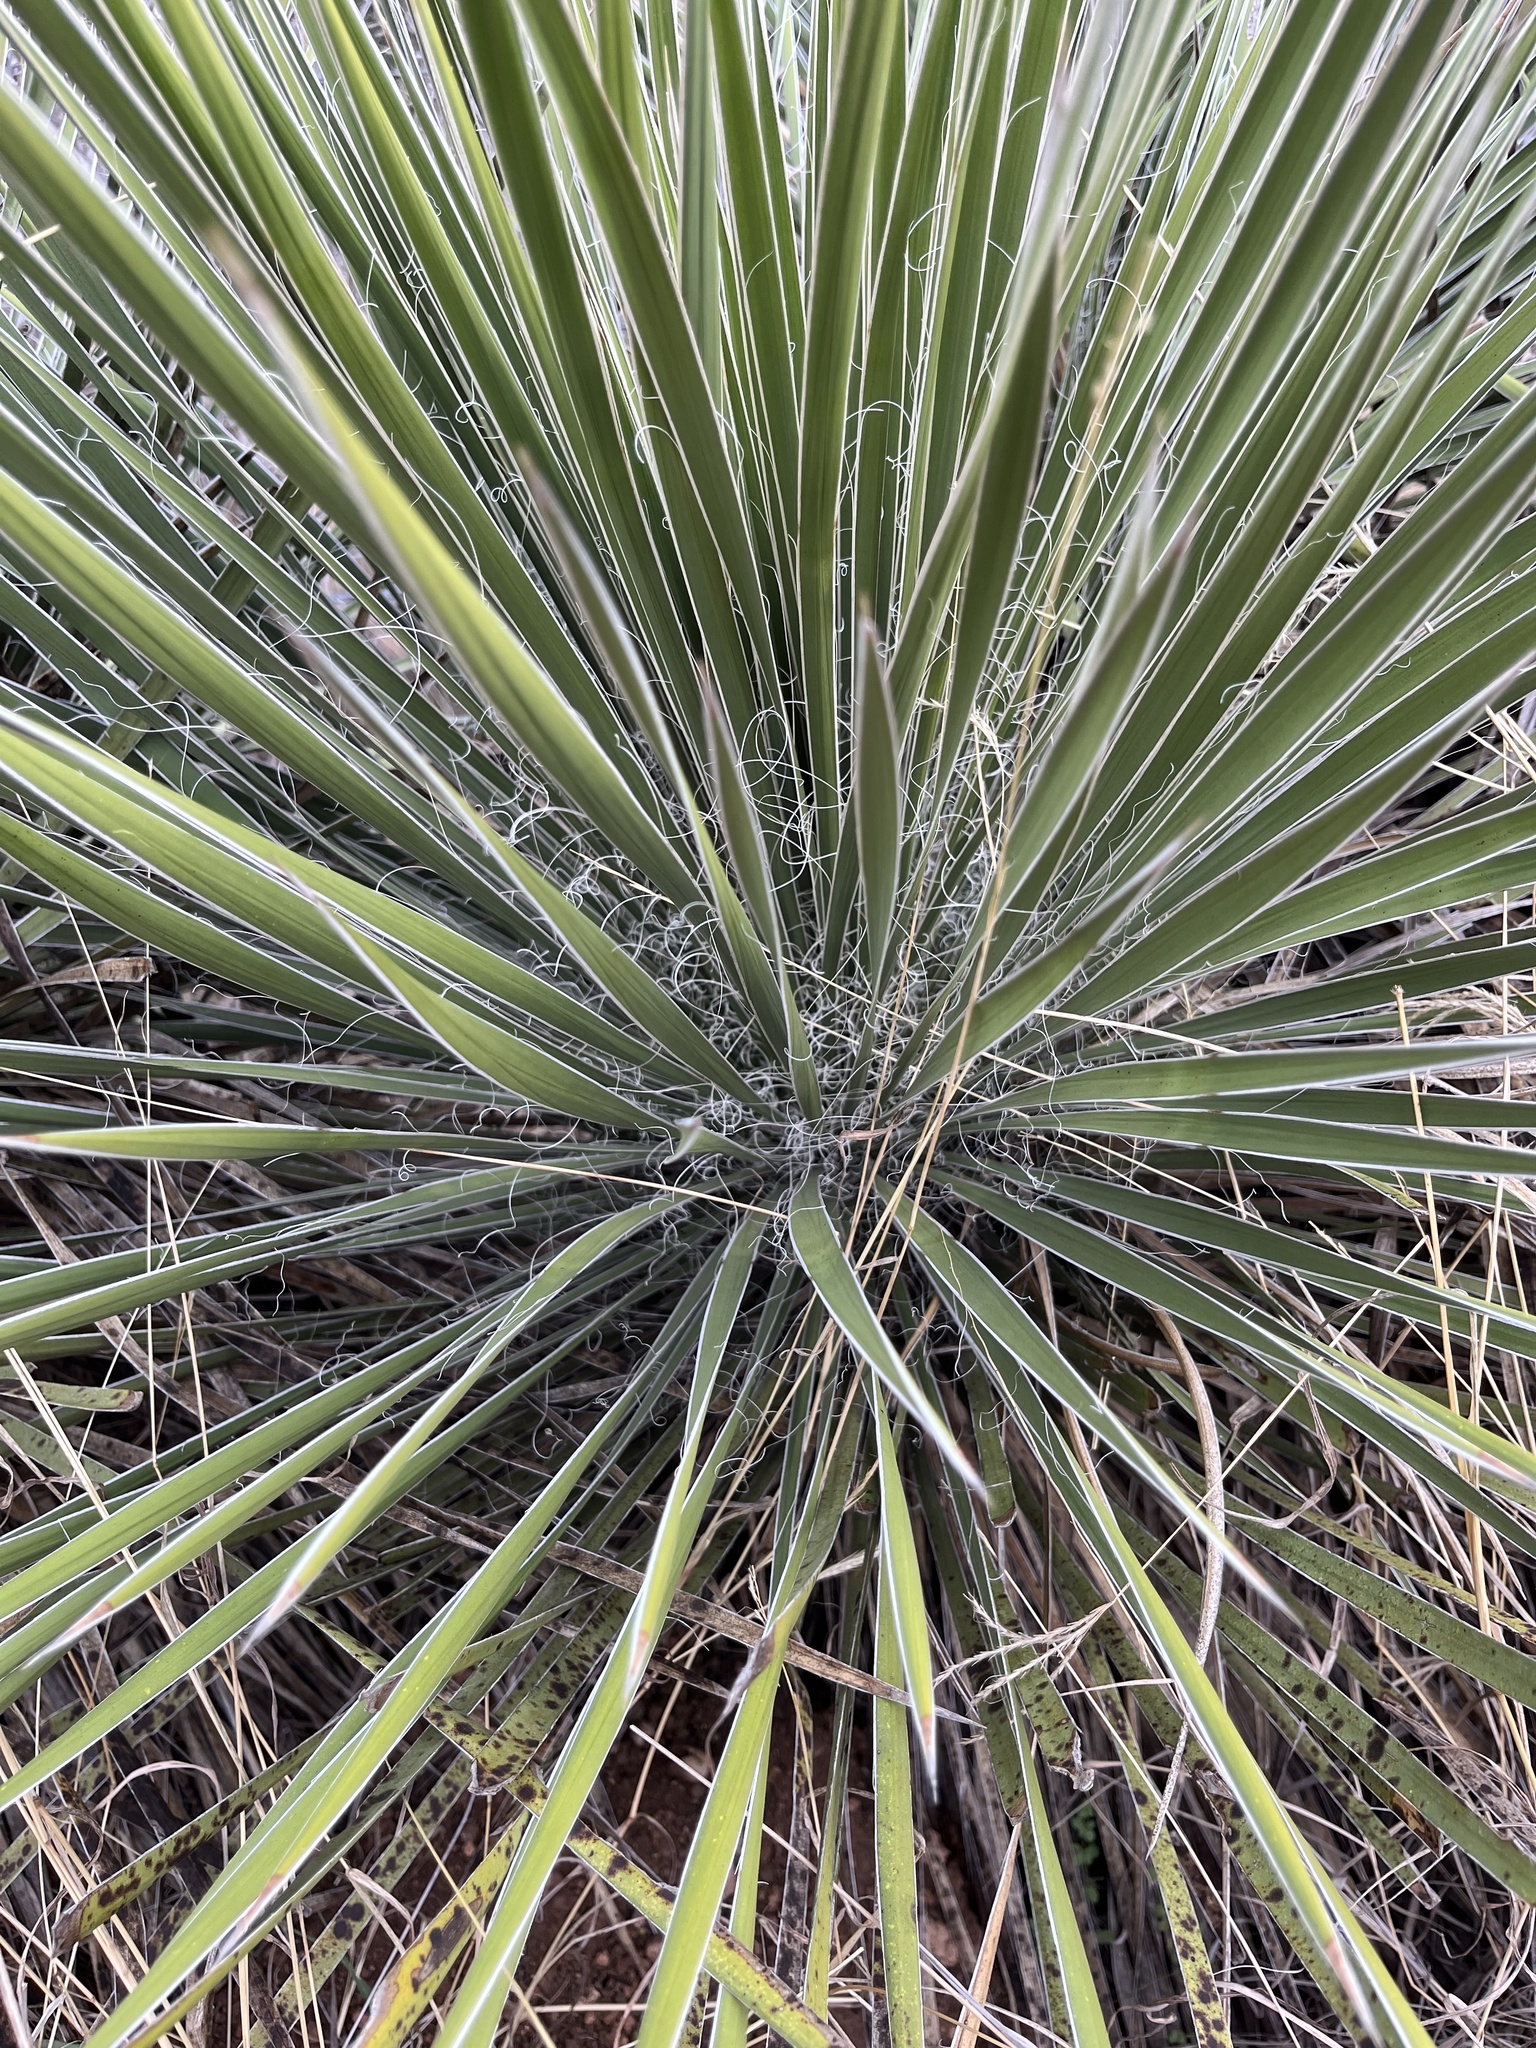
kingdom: Plantae
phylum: Tracheophyta
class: Liliopsida
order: Asparagales
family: Asparagaceae
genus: Yucca
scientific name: Yucca constricta
